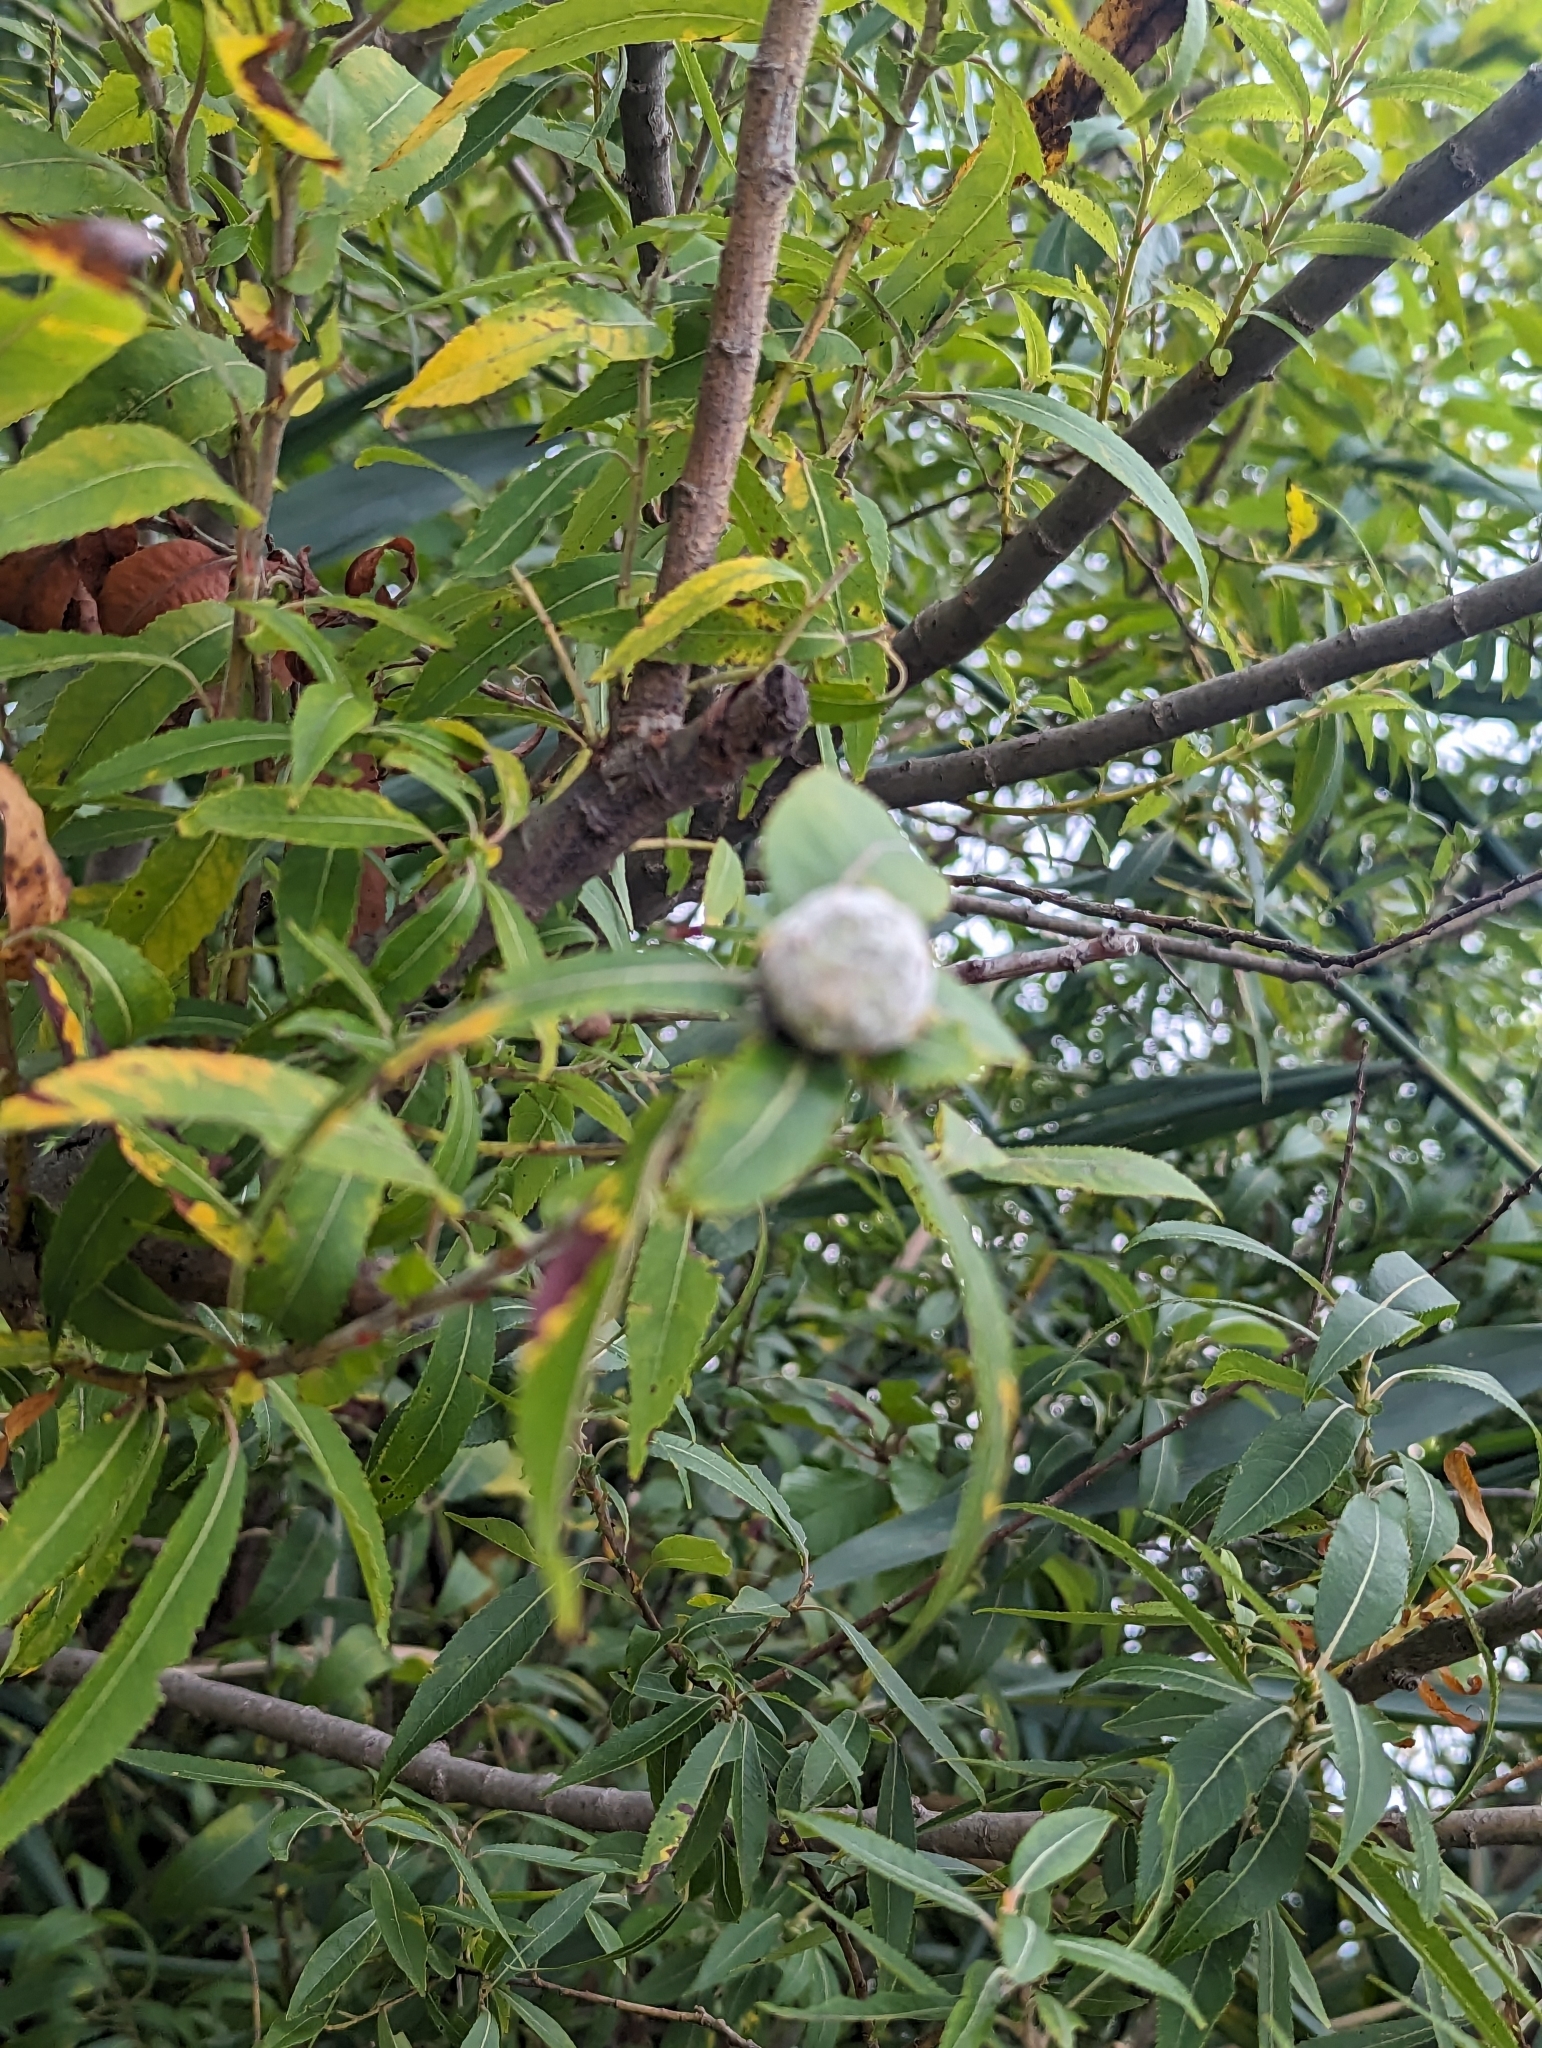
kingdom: Animalia
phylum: Arthropoda
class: Insecta
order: Diptera
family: Cecidomyiidae
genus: Rabdophaga
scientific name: Rabdophaga strobiloides
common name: Willow pinecone gall midge
